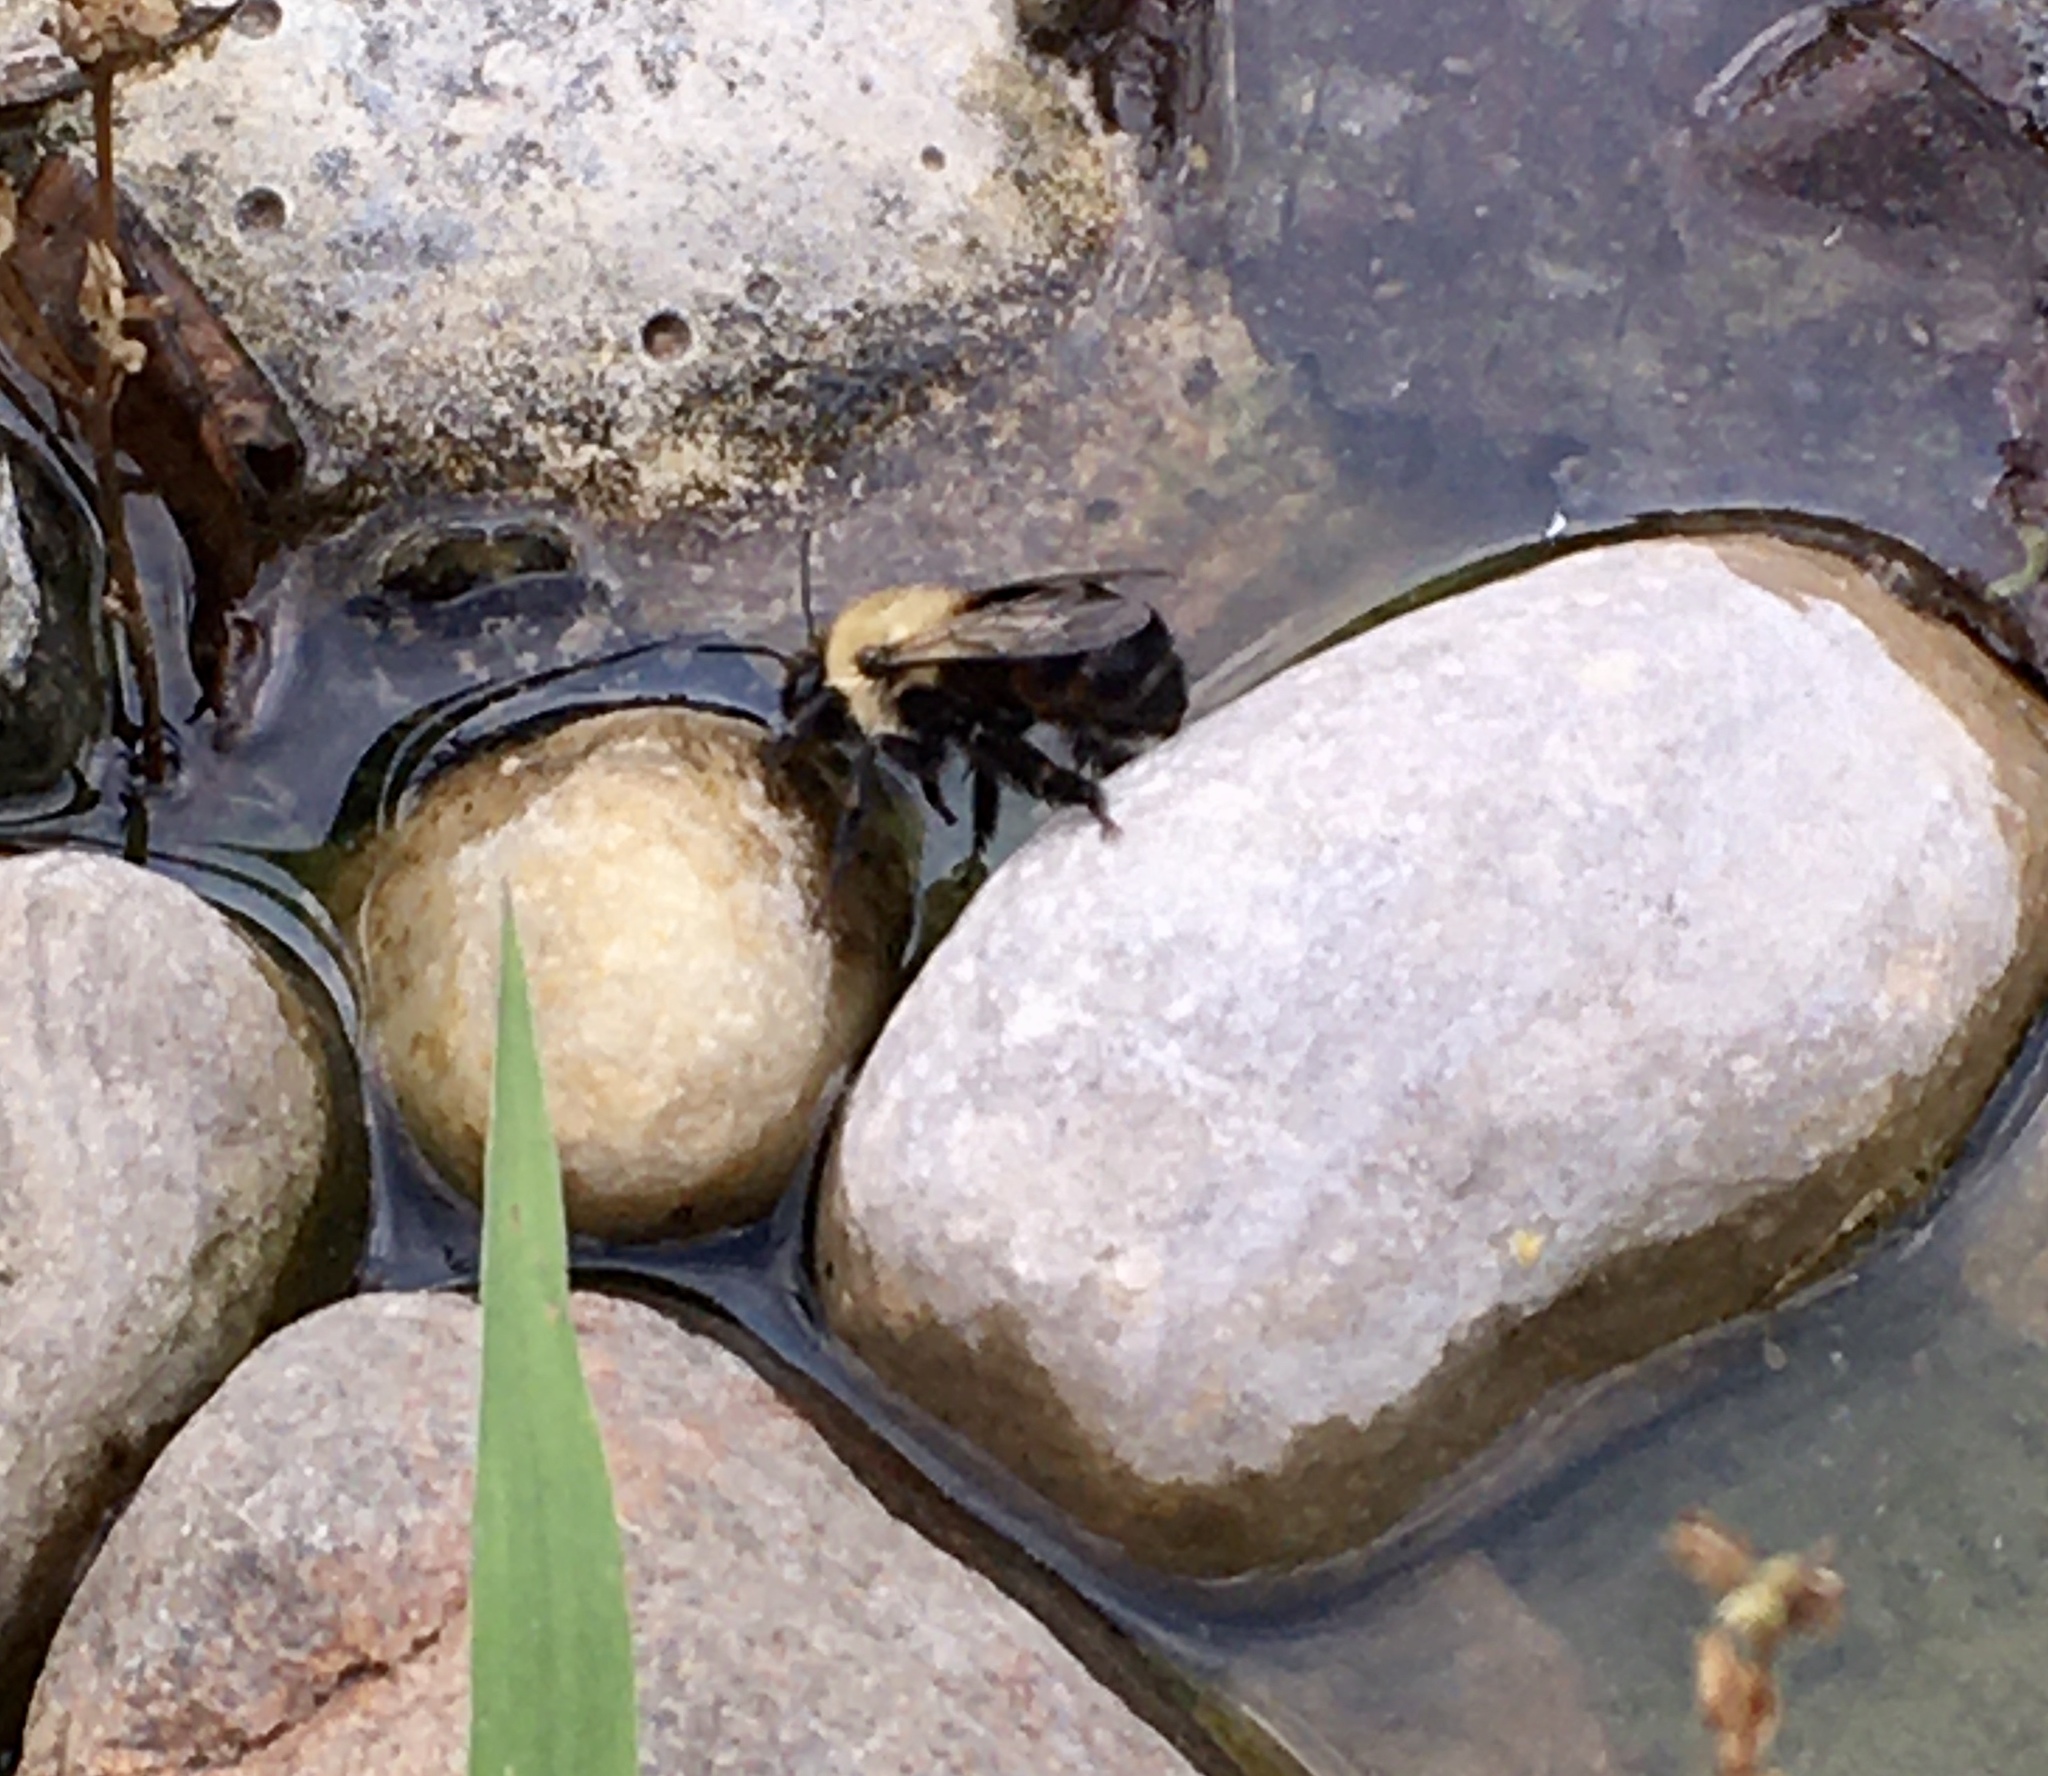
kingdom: Animalia
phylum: Arthropoda
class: Insecta
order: Hymenoptera
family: Apidae
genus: Anthophora
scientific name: Anthophora abrupta
